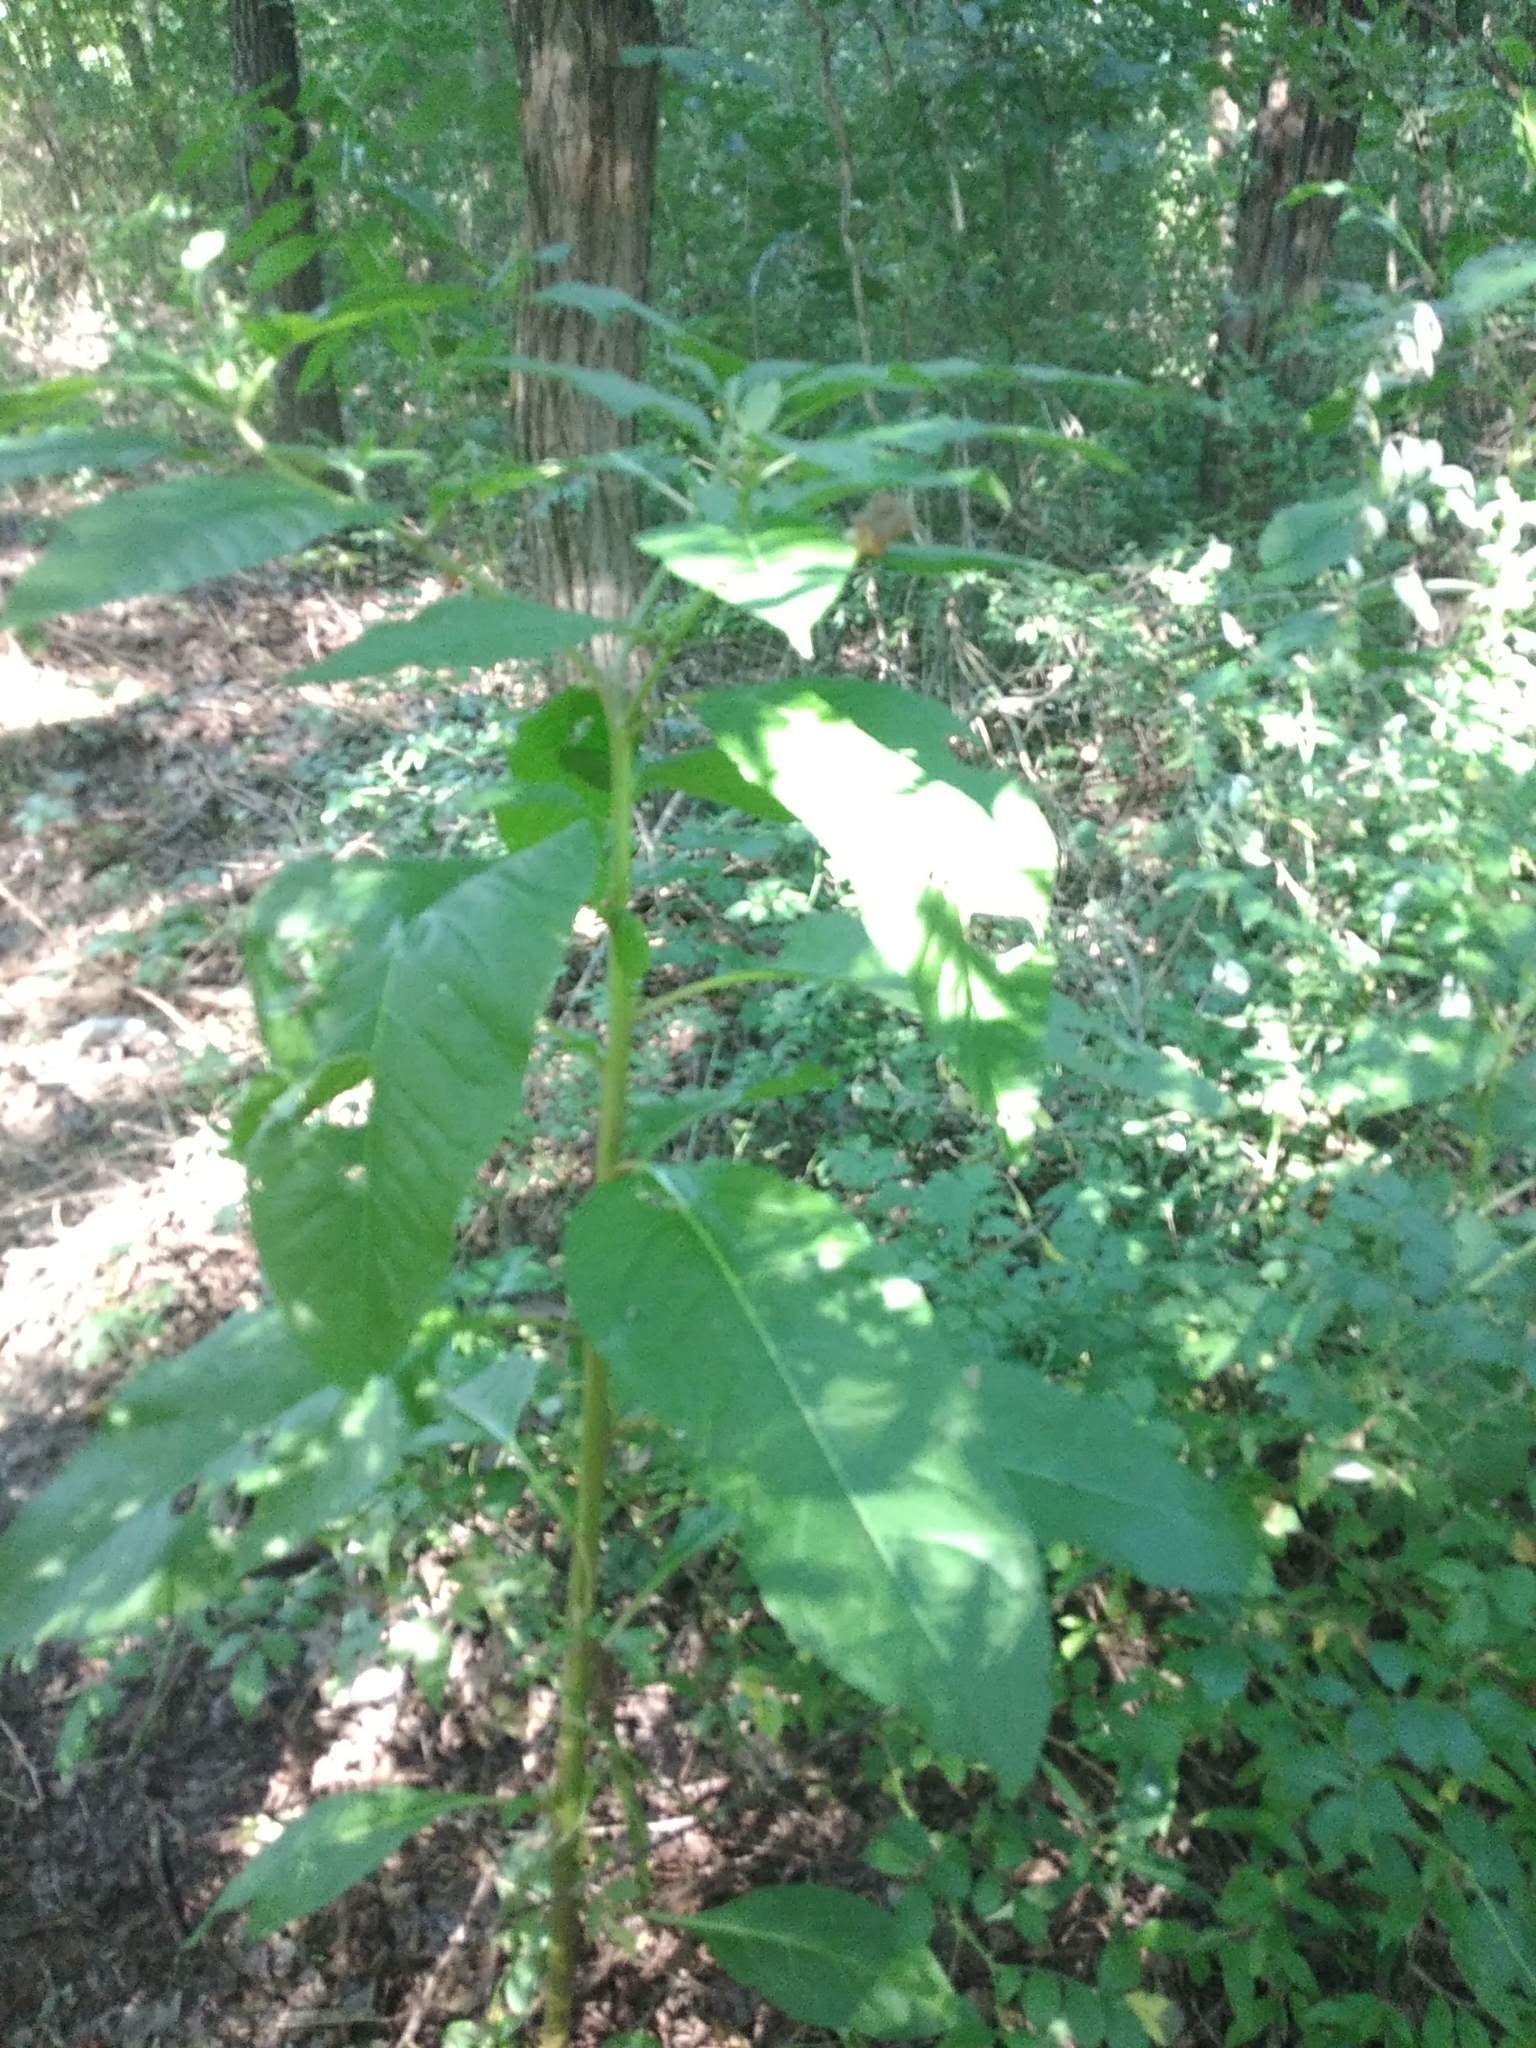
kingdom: Plantae
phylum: Tracheophyta
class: Magnoliopsida
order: Caryophyllales
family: Phytolaccaceae
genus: Phytolacca
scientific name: Phytolacca americana
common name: American pokeweed
